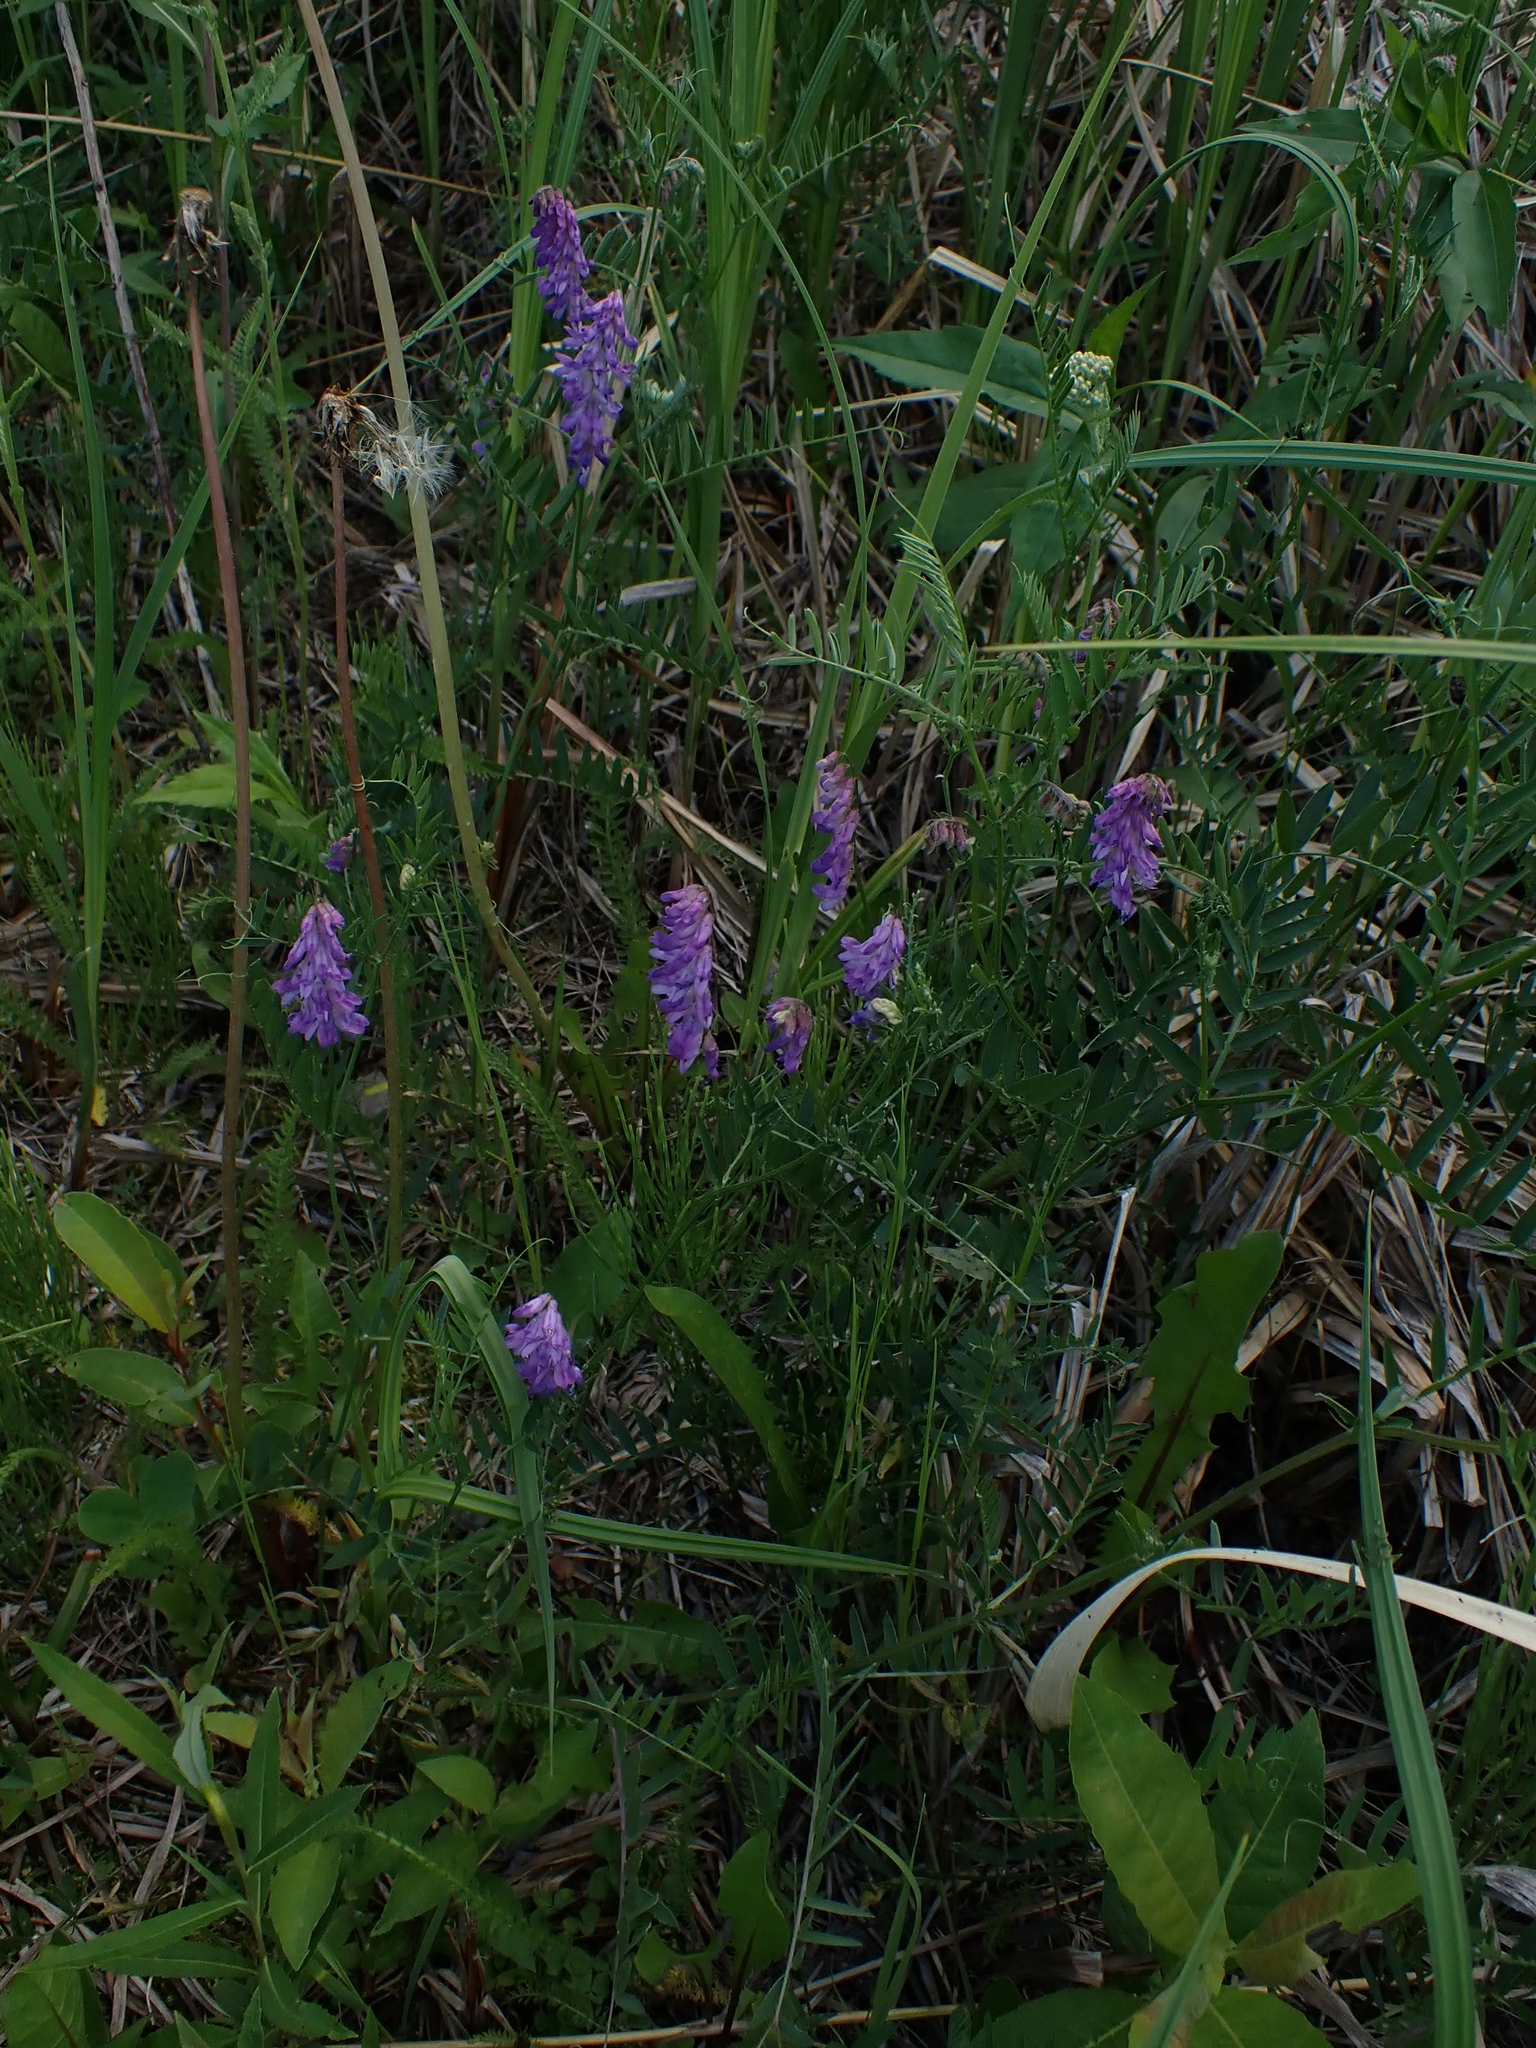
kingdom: Plantae
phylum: Tracheophyta
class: Magnoliopsida
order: Fabales
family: Fabaceae
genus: Vicia
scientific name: Vicia cracca
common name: Bird vetch
